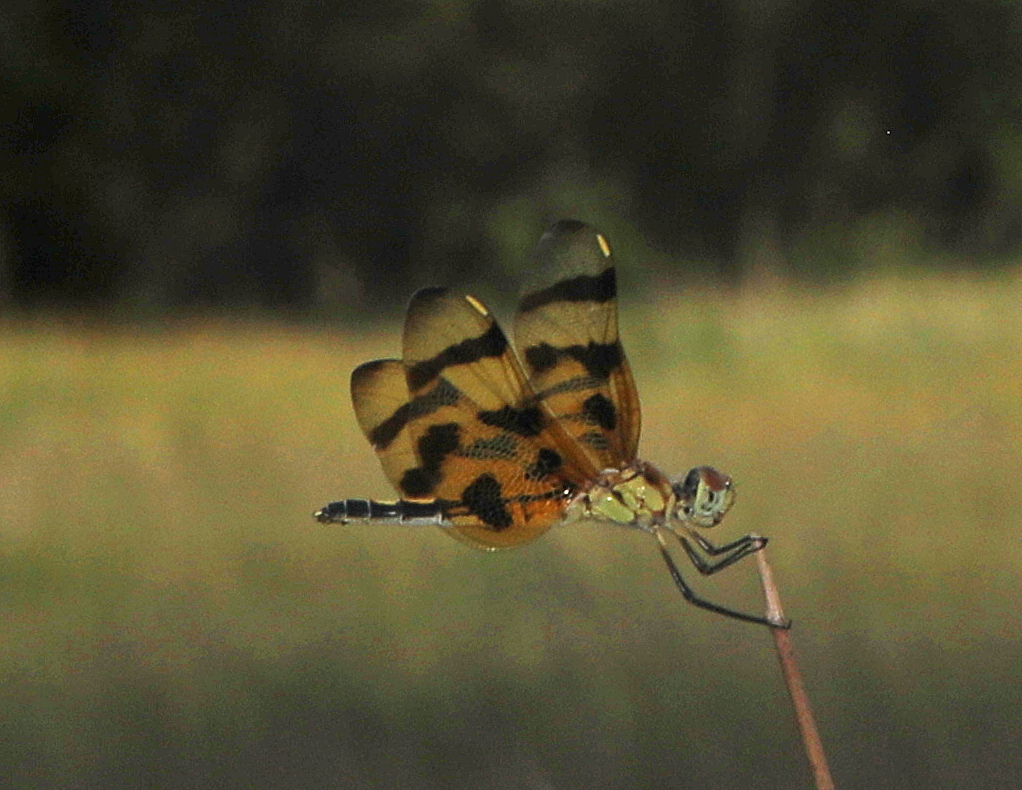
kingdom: Animalia
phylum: Arthropoda
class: Insecta
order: Odonata
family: Libellulidae
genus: Celithemis
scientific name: Celithemis eponina
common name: Halloween pennant
